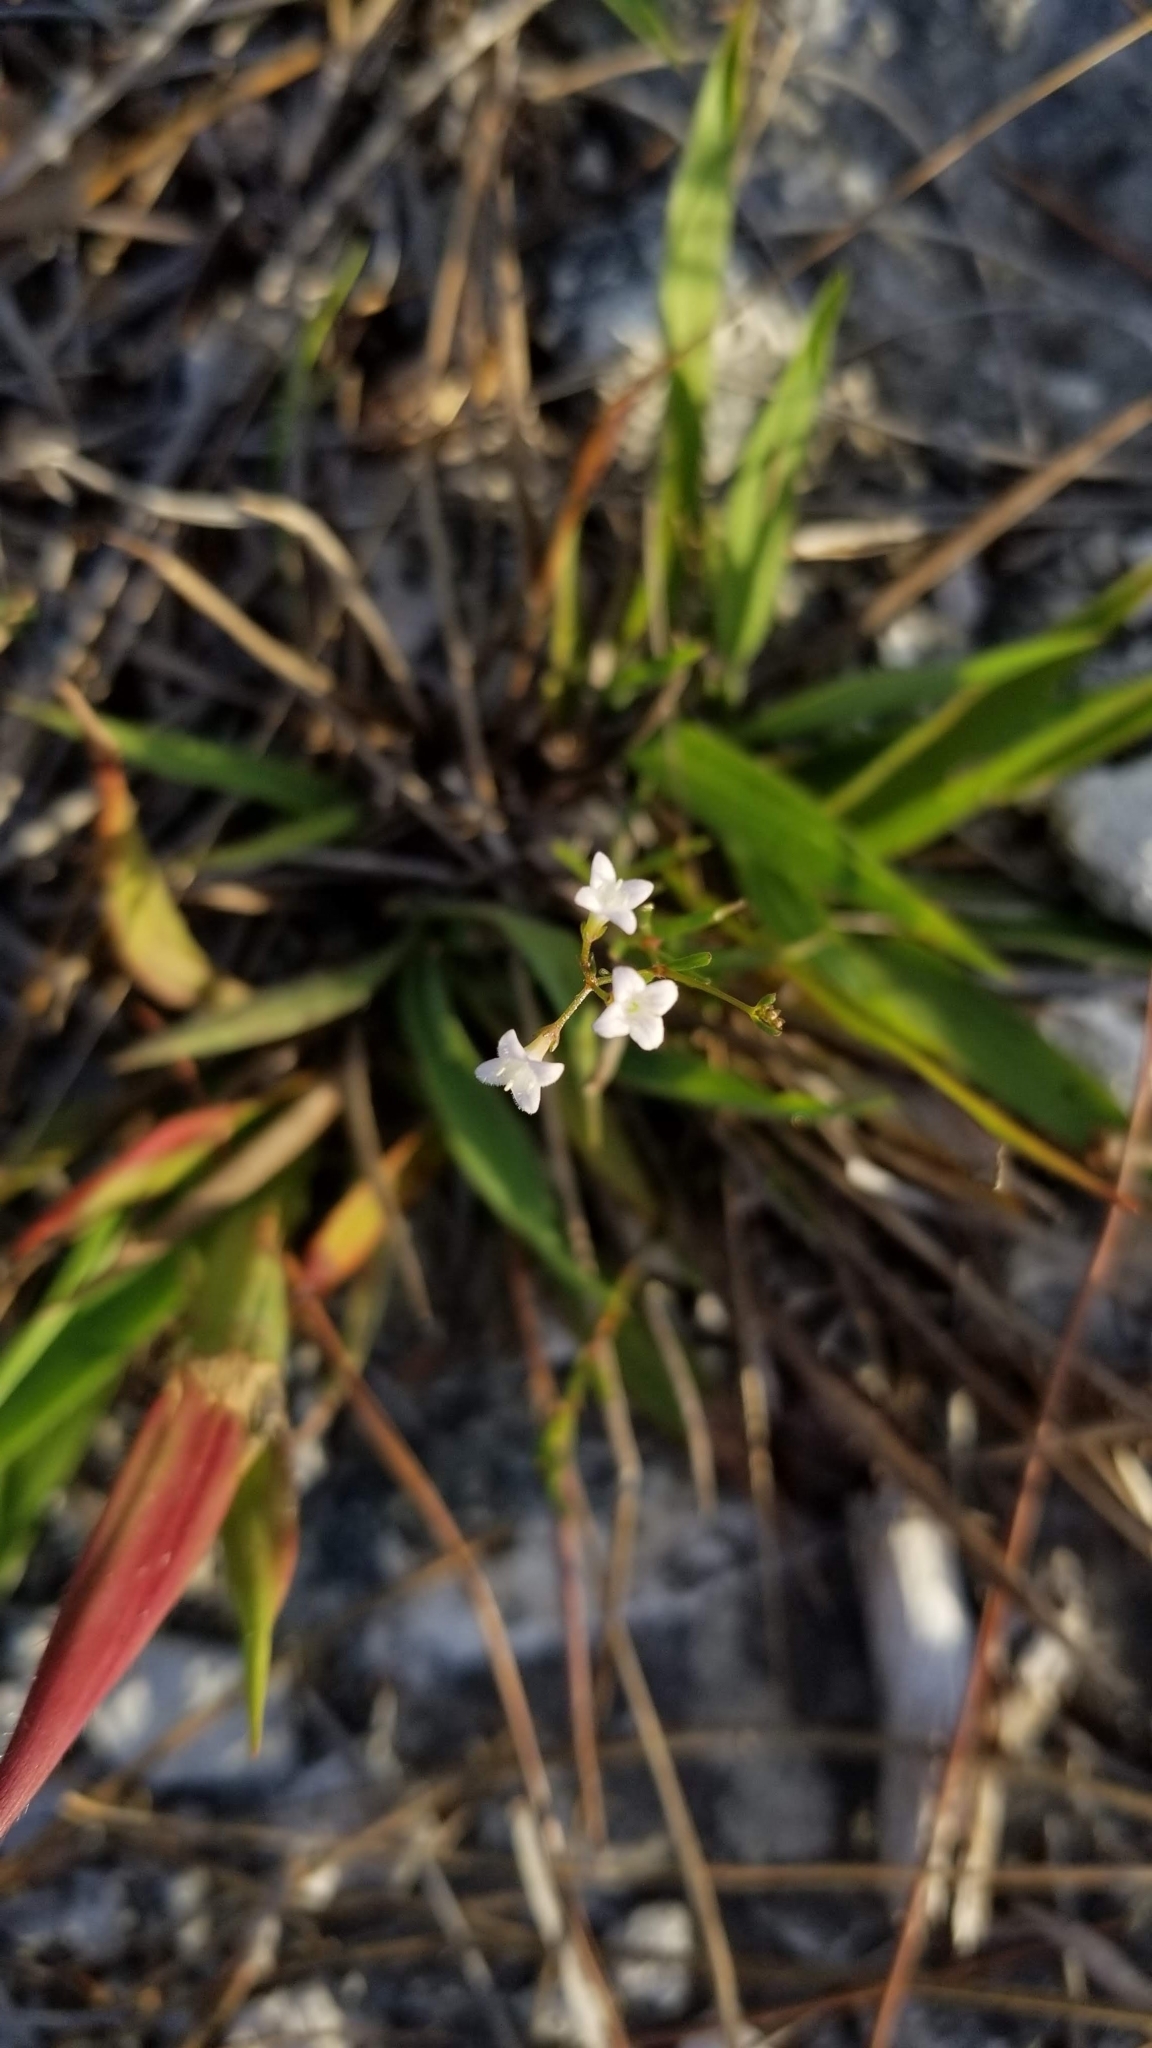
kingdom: Plantae
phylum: Tracheophyta
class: Magnoliopsida
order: Gentianales
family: Rubiaceae
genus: Stenaria
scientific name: Stenaria nigricans
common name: Diamondflowers
